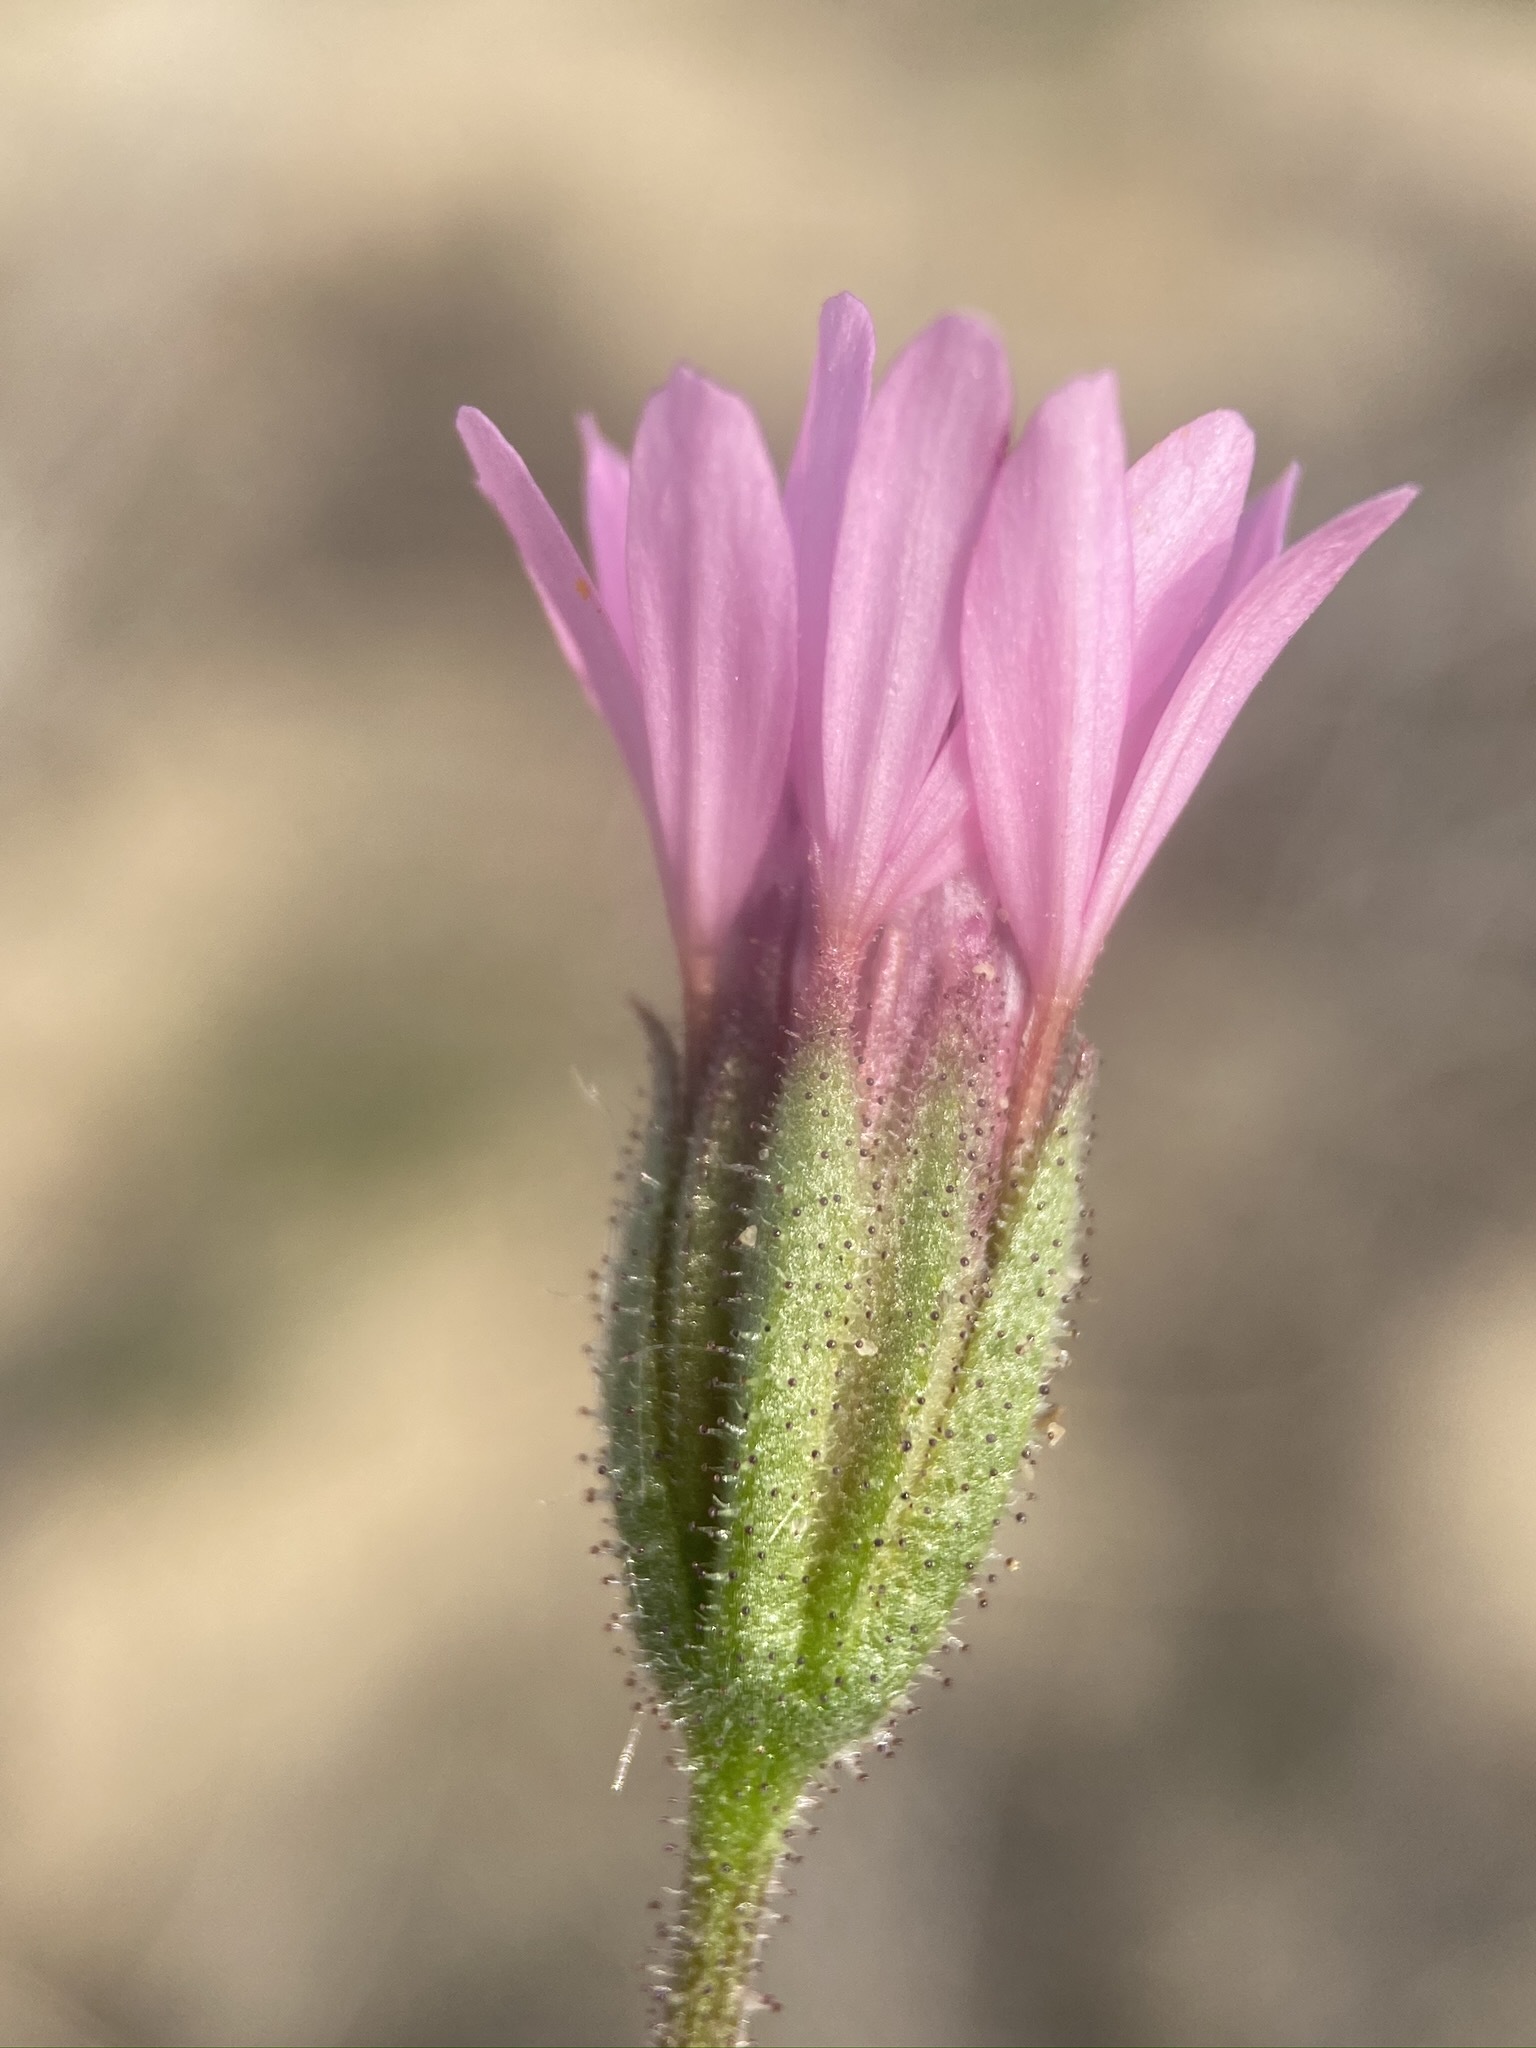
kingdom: Plantae
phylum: Tracheophyta
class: Magnoliopsida
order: Asterales
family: Asteraceae
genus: Palafoxia
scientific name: Palafoxia sphacelata
